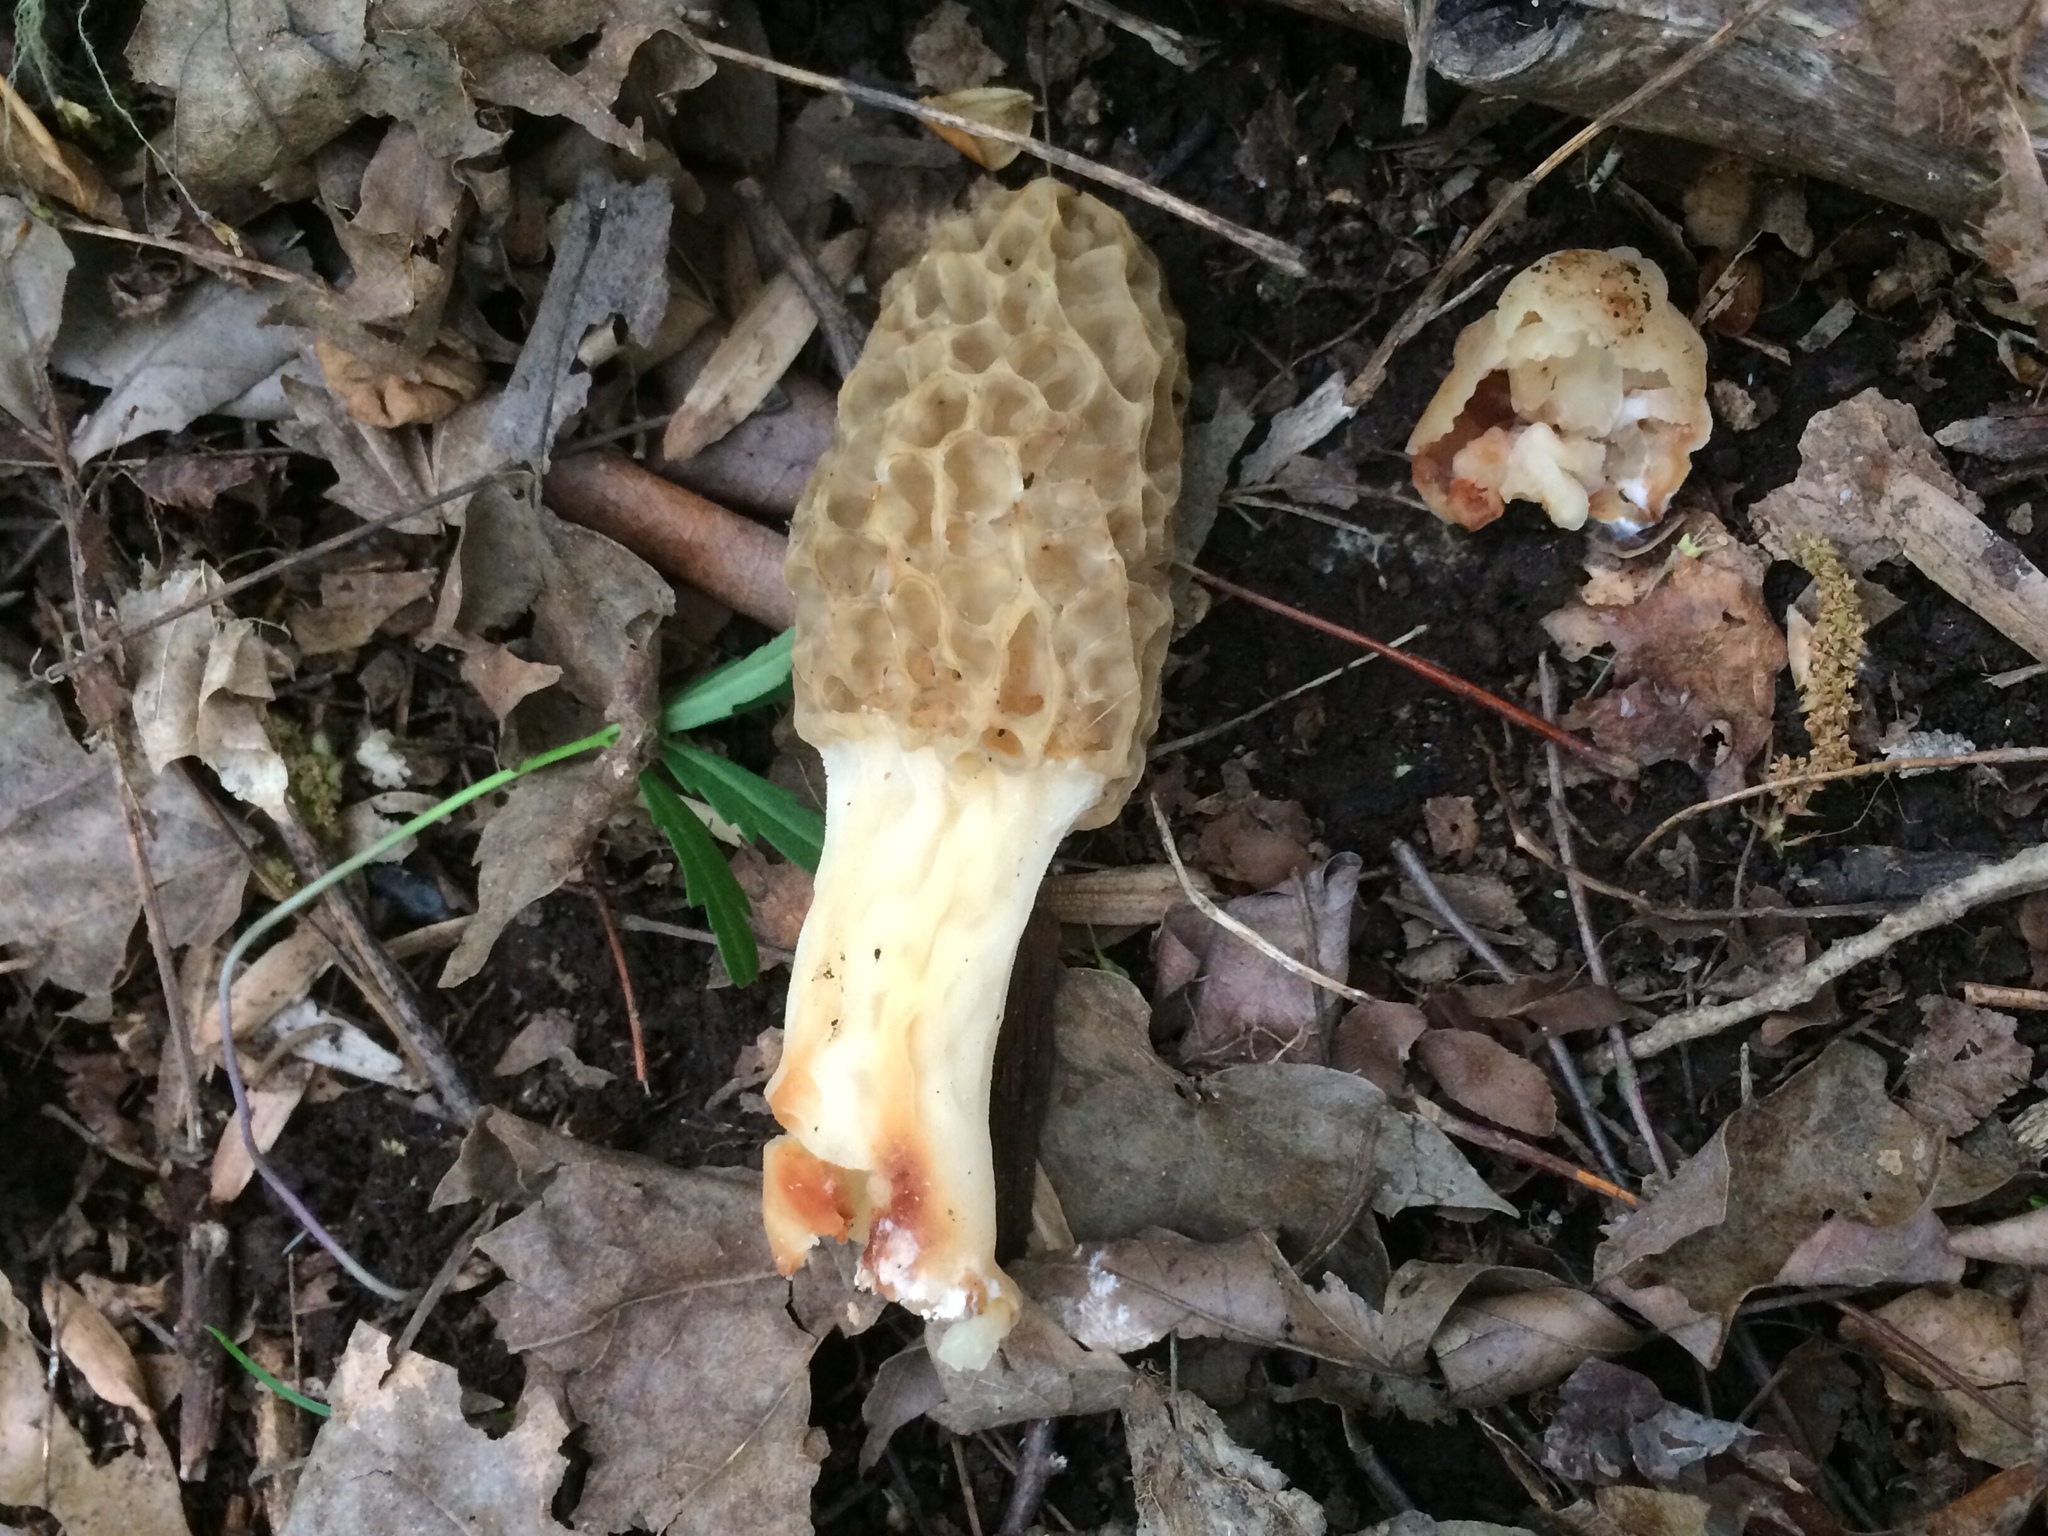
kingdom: Fungi
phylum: Ascomycota
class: Pezizomycetes
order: Pezizales
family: Morchellaceae
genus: Morchella
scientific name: Morchella americana
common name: White morel
